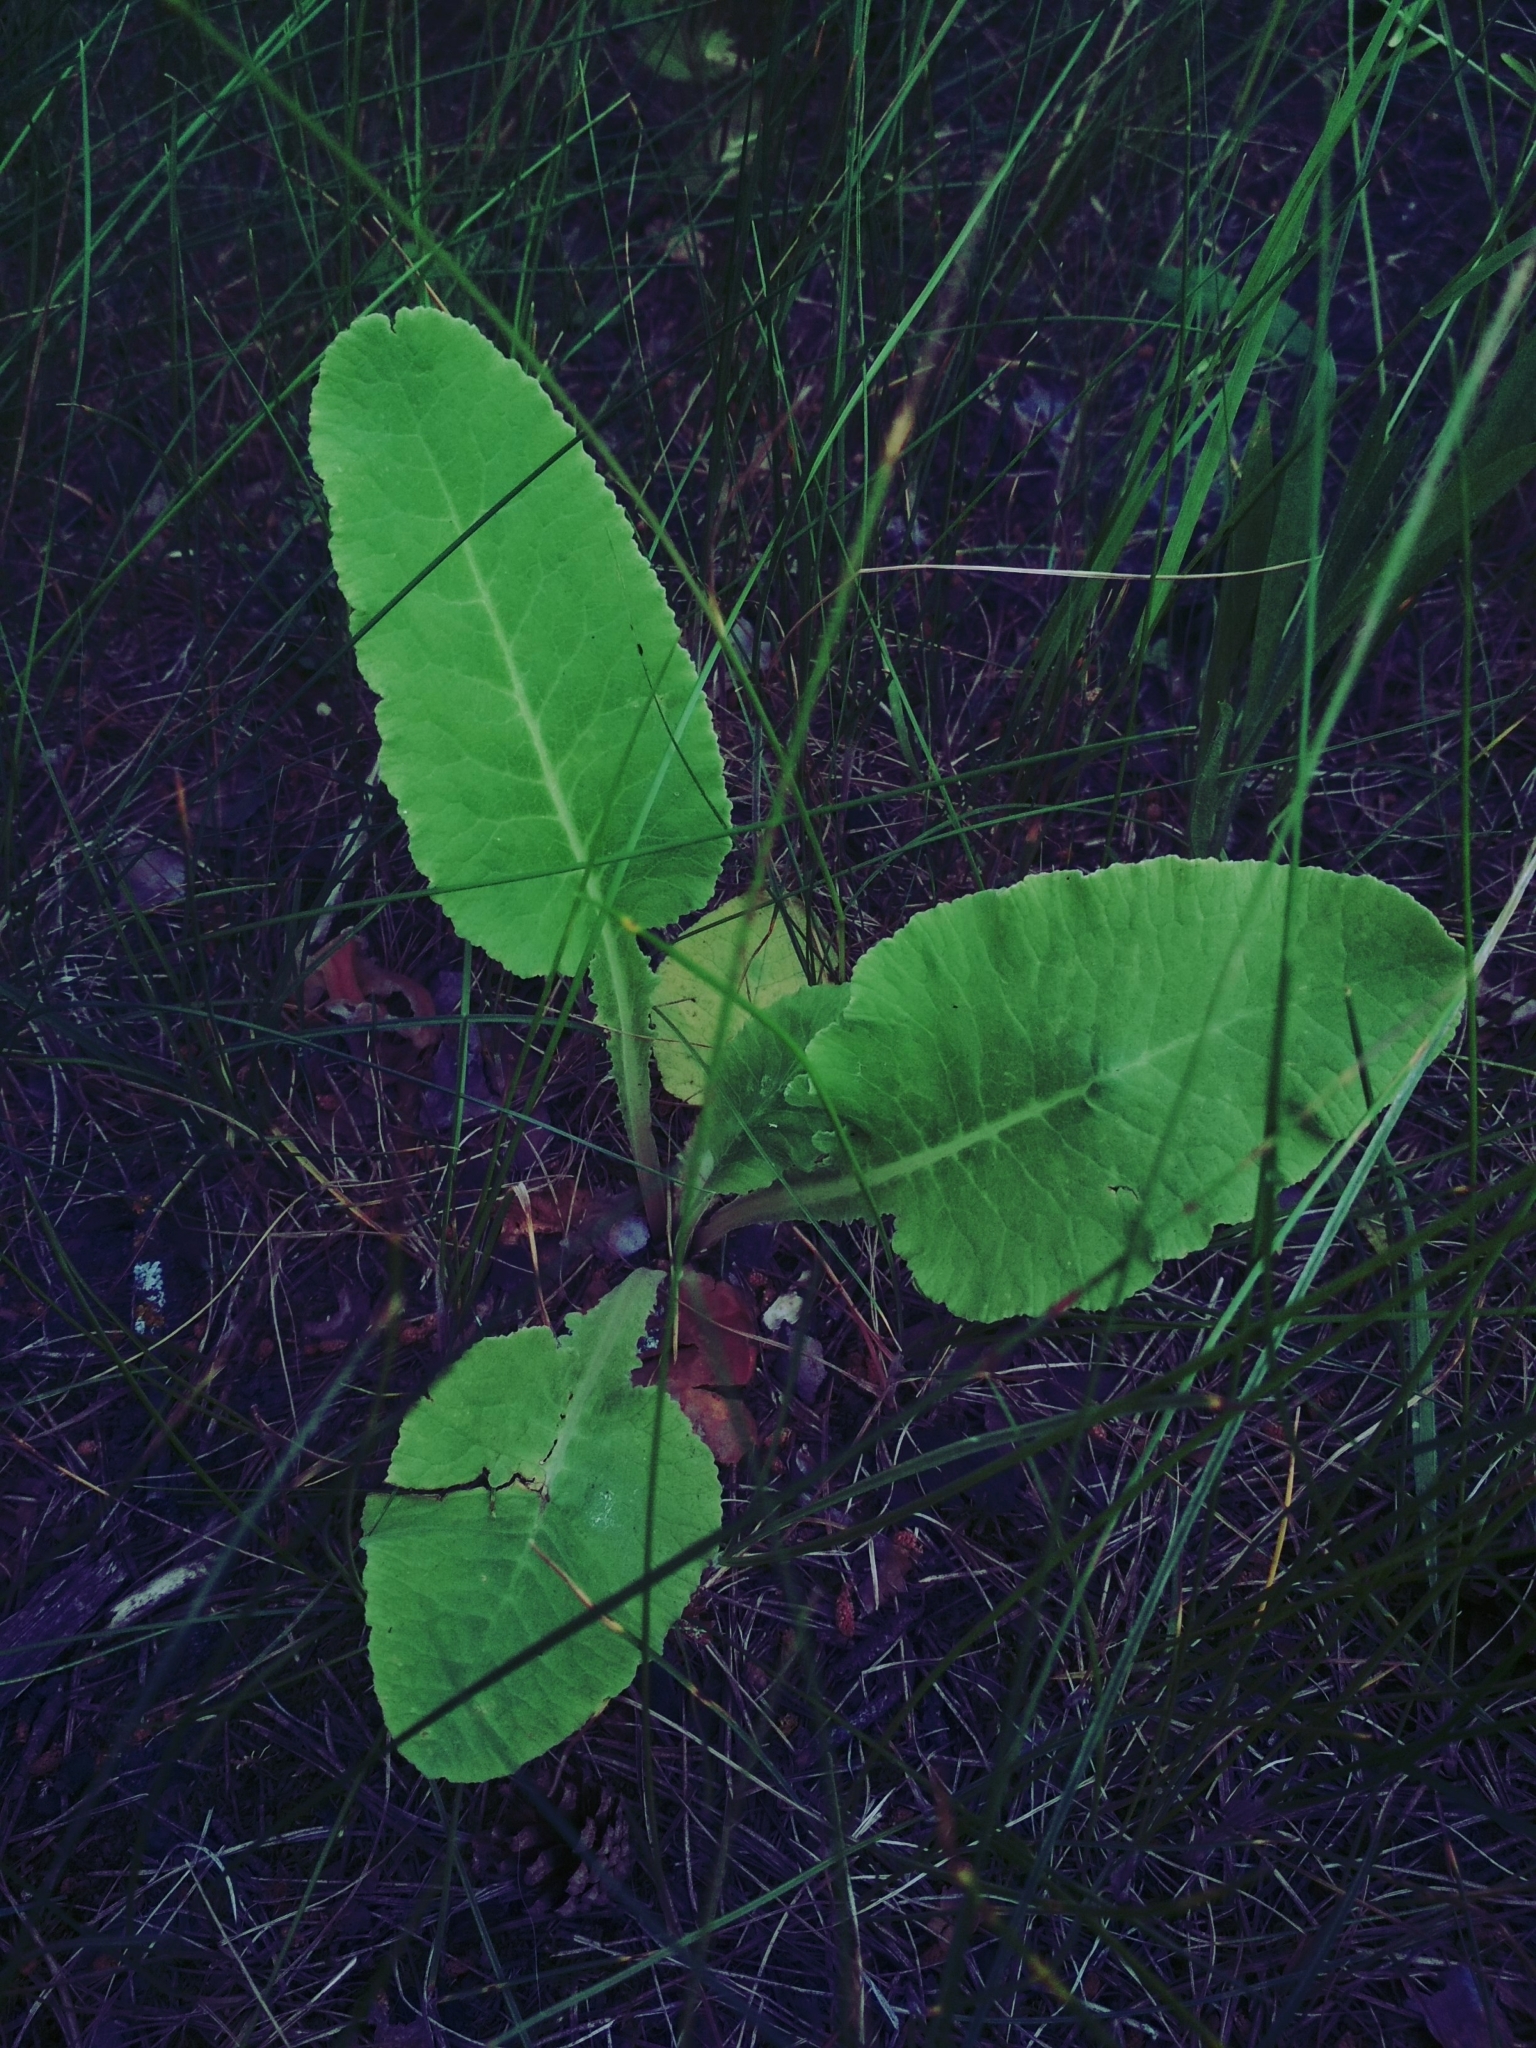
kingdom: Plantae
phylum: Tracheophyta
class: Magnoliopsida
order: Ericales
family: Primulaceae
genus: Primula
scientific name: Primula veris
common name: Cowslip
